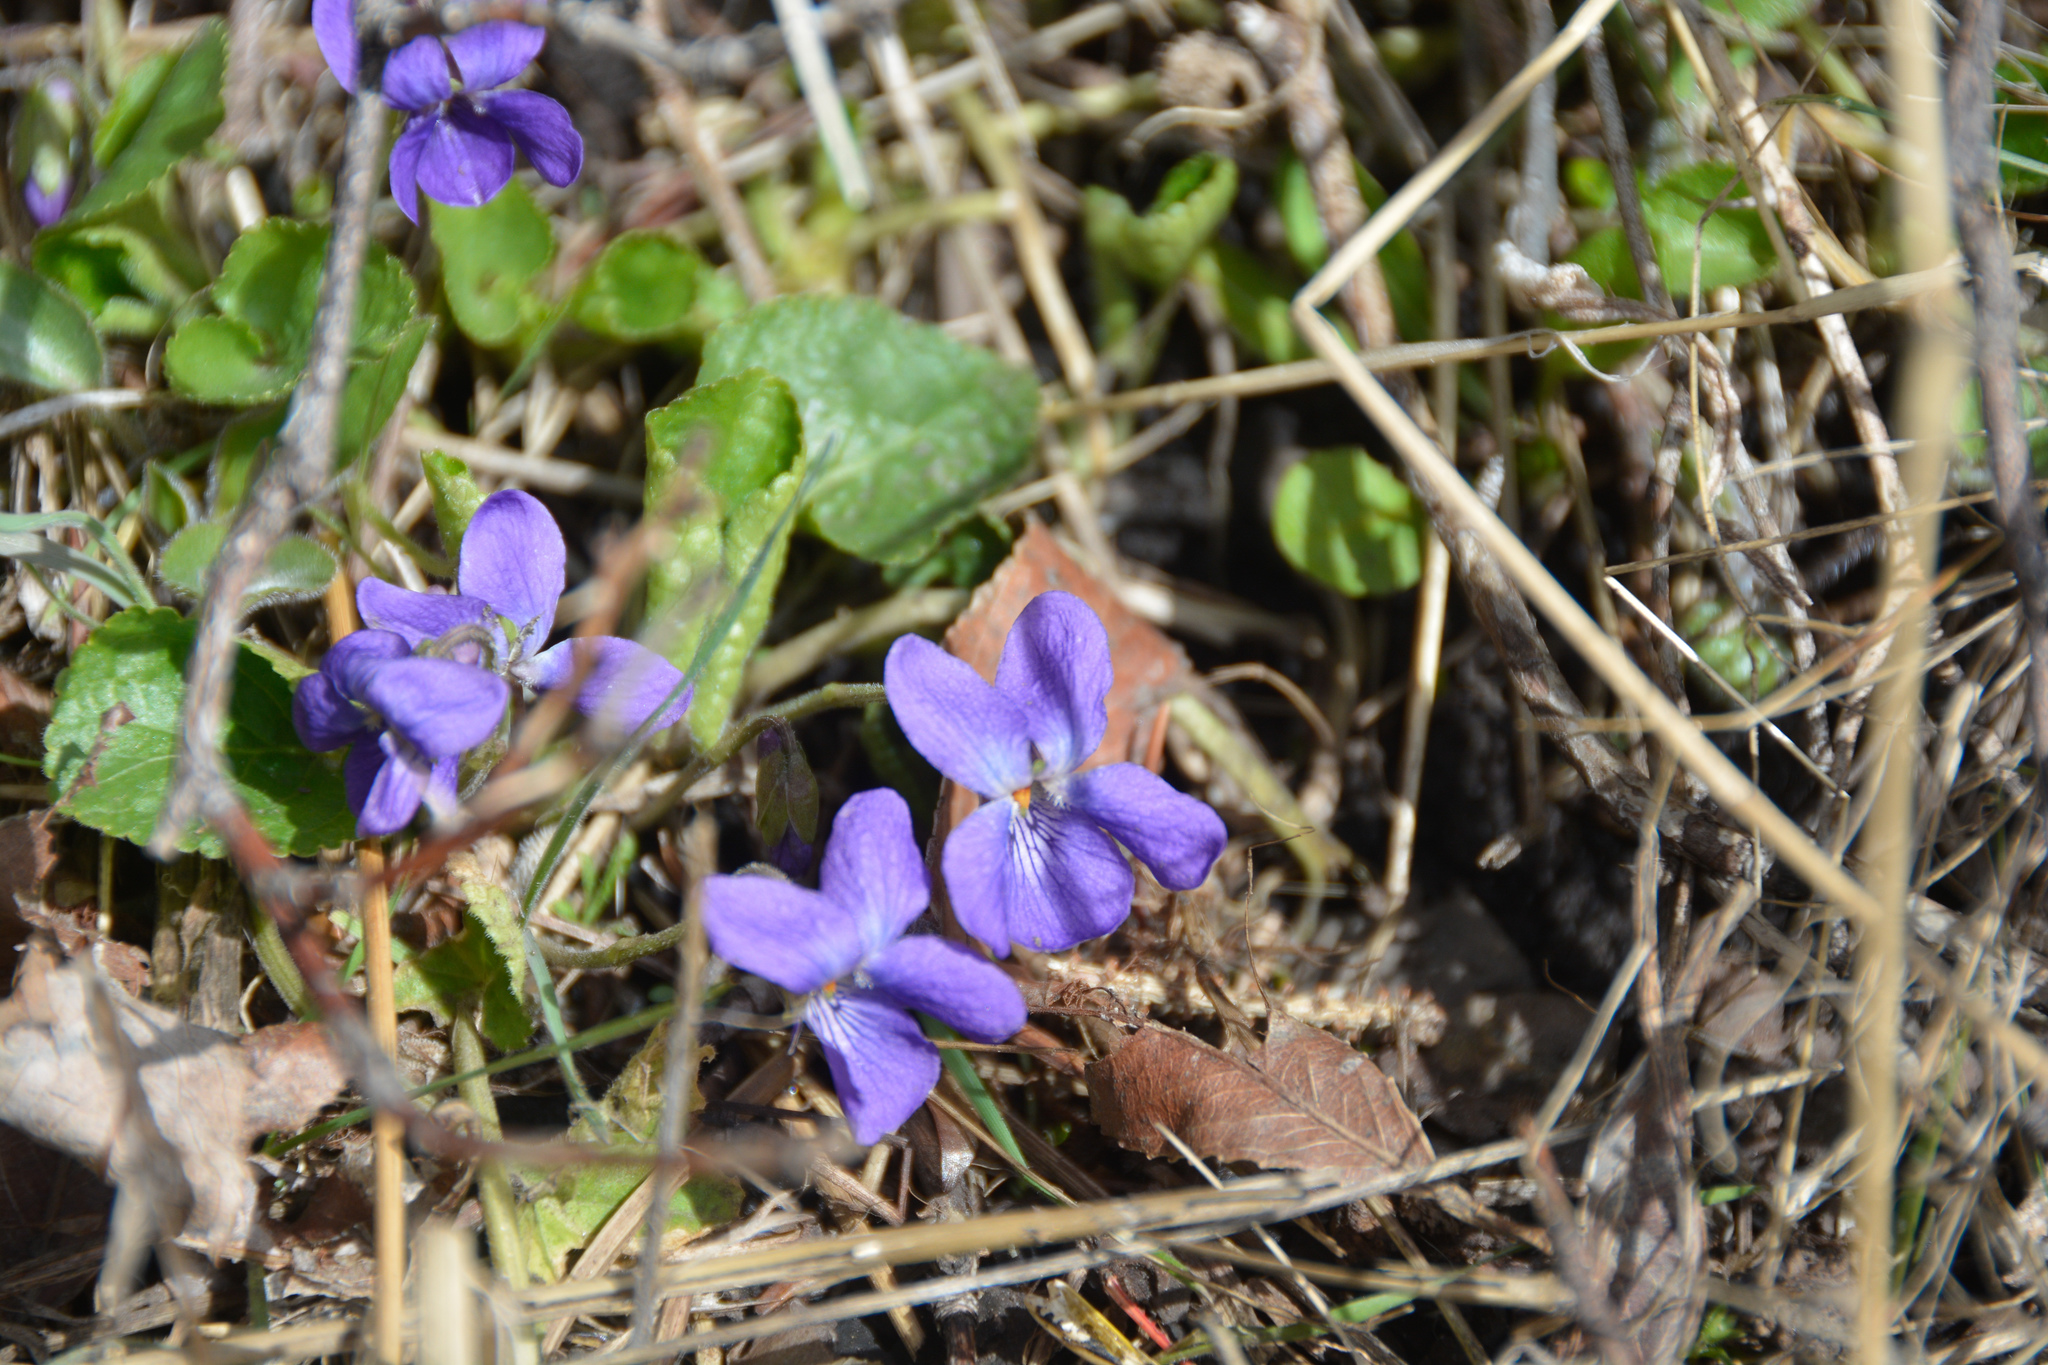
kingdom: Plantae
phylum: Tracheophyta
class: Magnoliopsida
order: Malpighiales
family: Violaceae
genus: Viola
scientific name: Viola odorata
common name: Sweet violet
